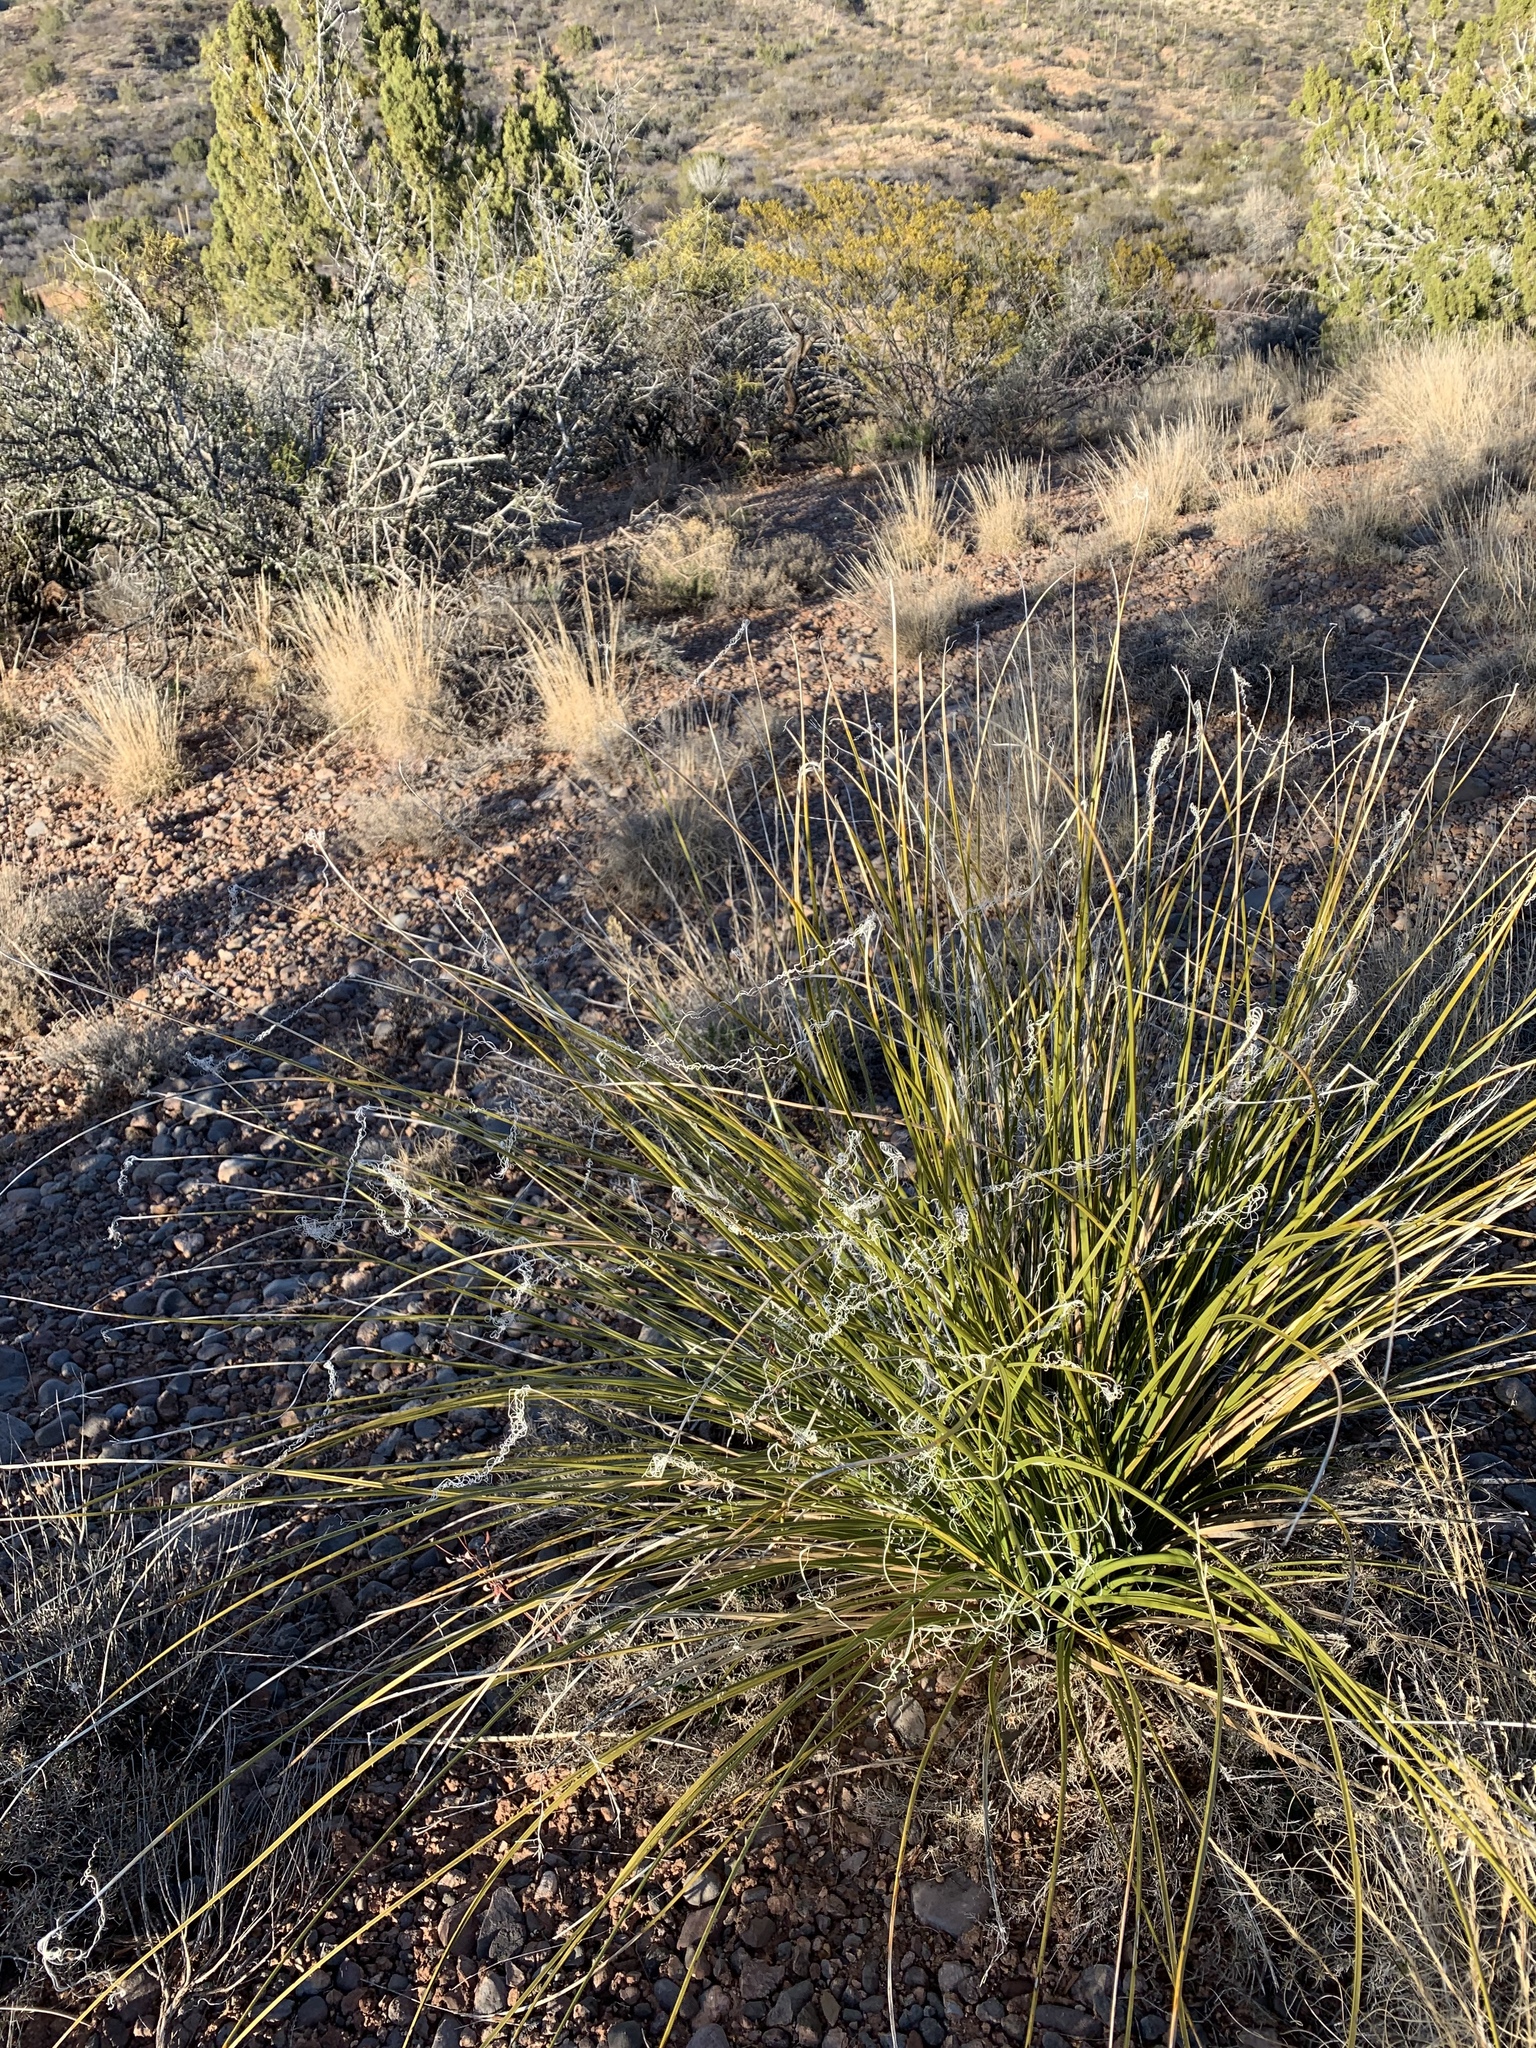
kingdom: Plantae
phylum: Tracheophyta
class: Liliopsida
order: Asparagales
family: Asparagaceae
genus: Nolina
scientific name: Nolina texana
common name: Texas sacahuiste
